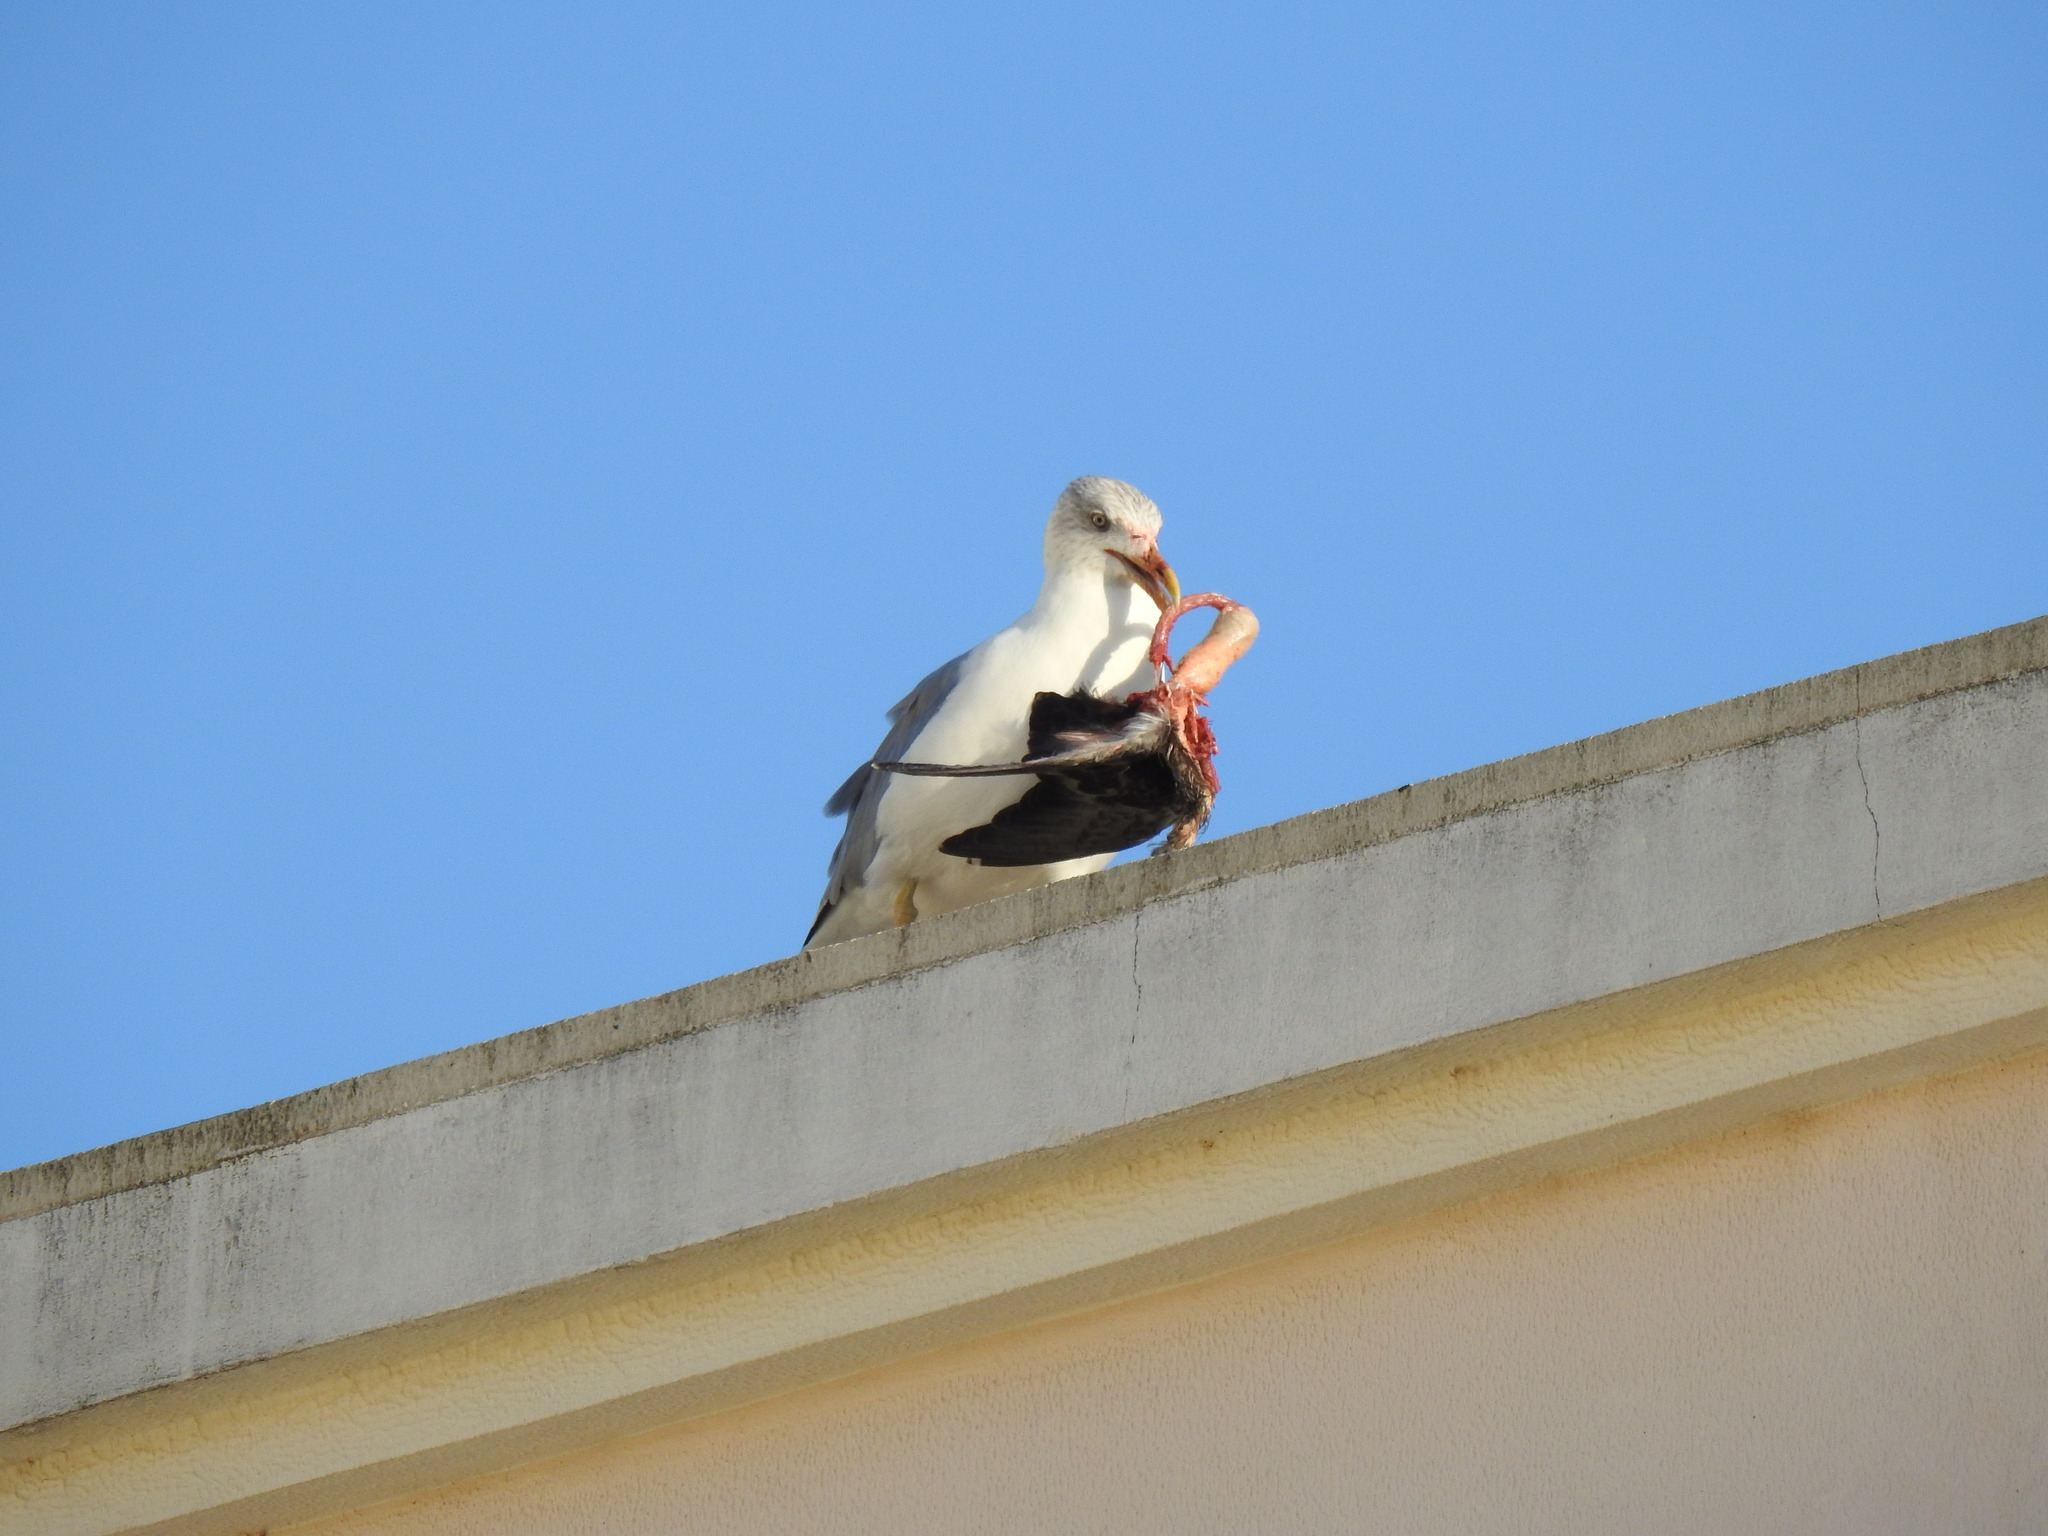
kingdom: Animalia
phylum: Chordata
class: Aves
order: Charadriiformes
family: Laridae
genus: Larus
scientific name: Larus michahellis
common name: Yellow-legged gull
